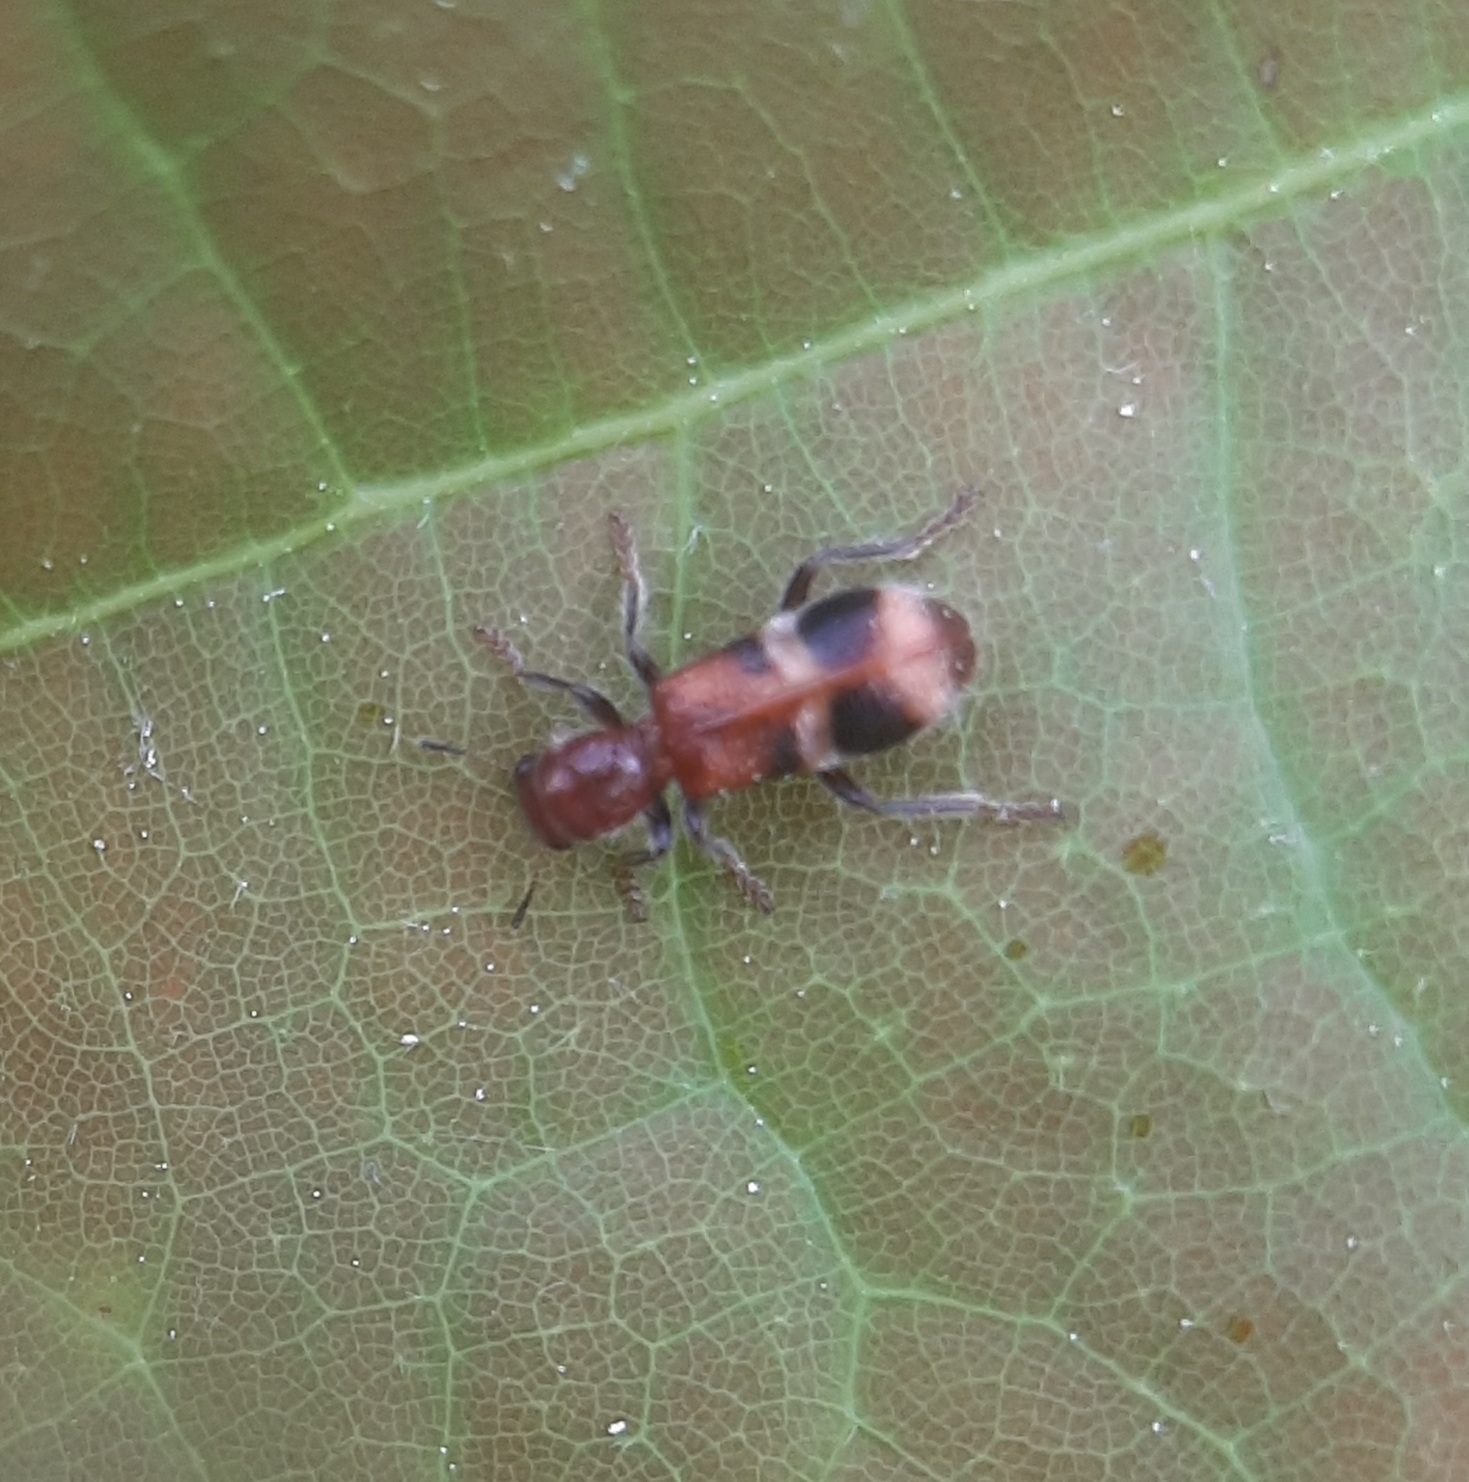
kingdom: Animalia
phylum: Arthropoda
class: Insecta
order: Coleoptera
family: Cleridae
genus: Enoclerus
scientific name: Enoclerus rosmarus
